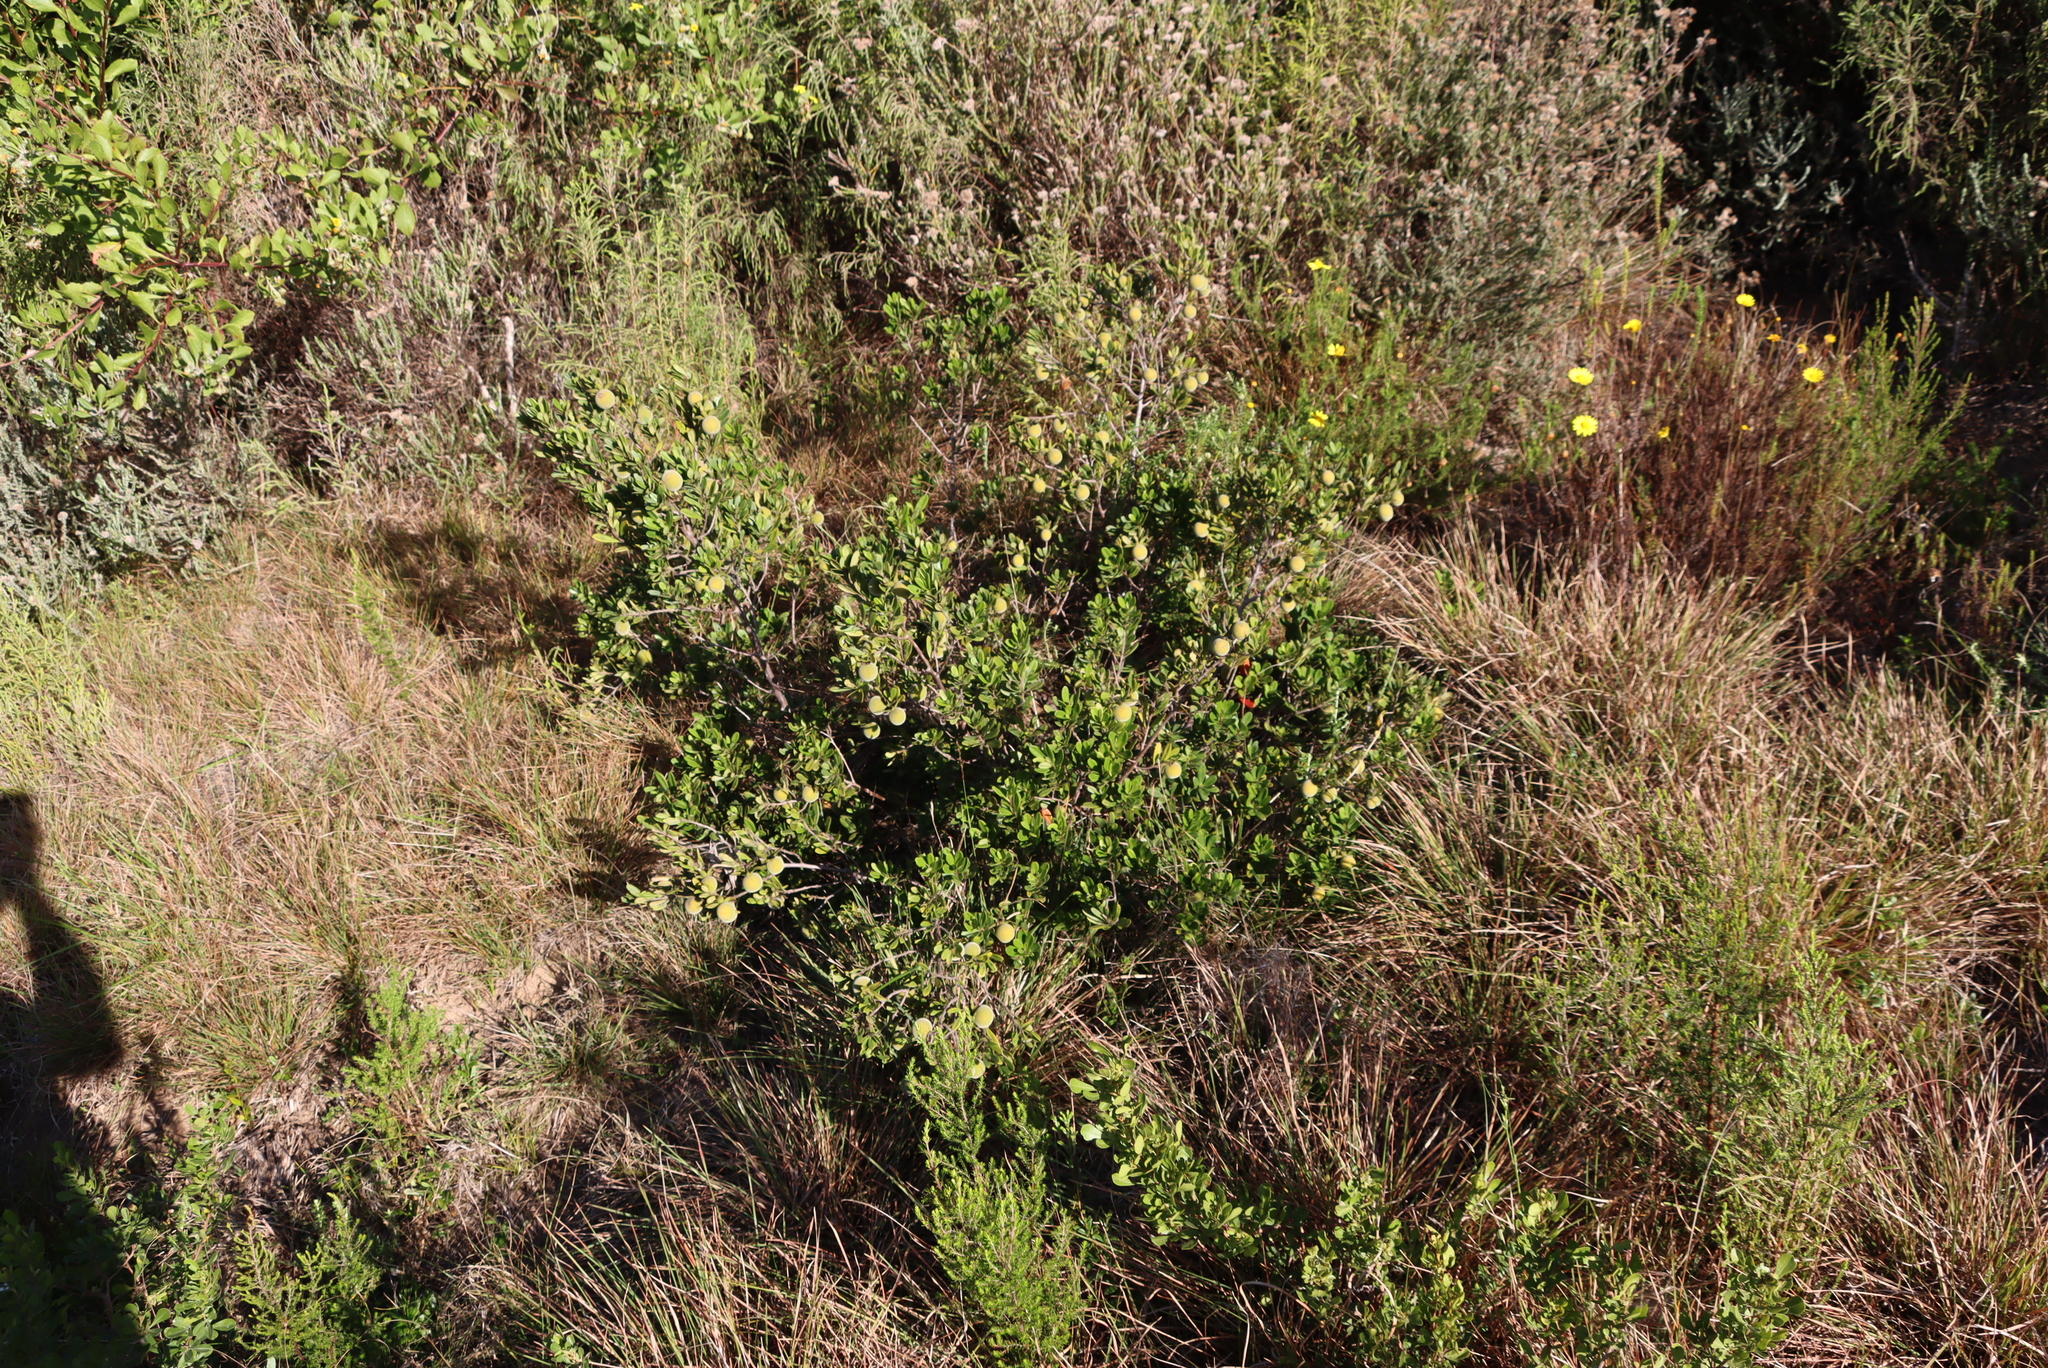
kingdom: Plantae
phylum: Tracheophyta
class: Magnoliopsida
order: Ericales
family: Ebenaceae
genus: Diospyros
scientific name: Diospyros dichrophylla
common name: Common star-apple
